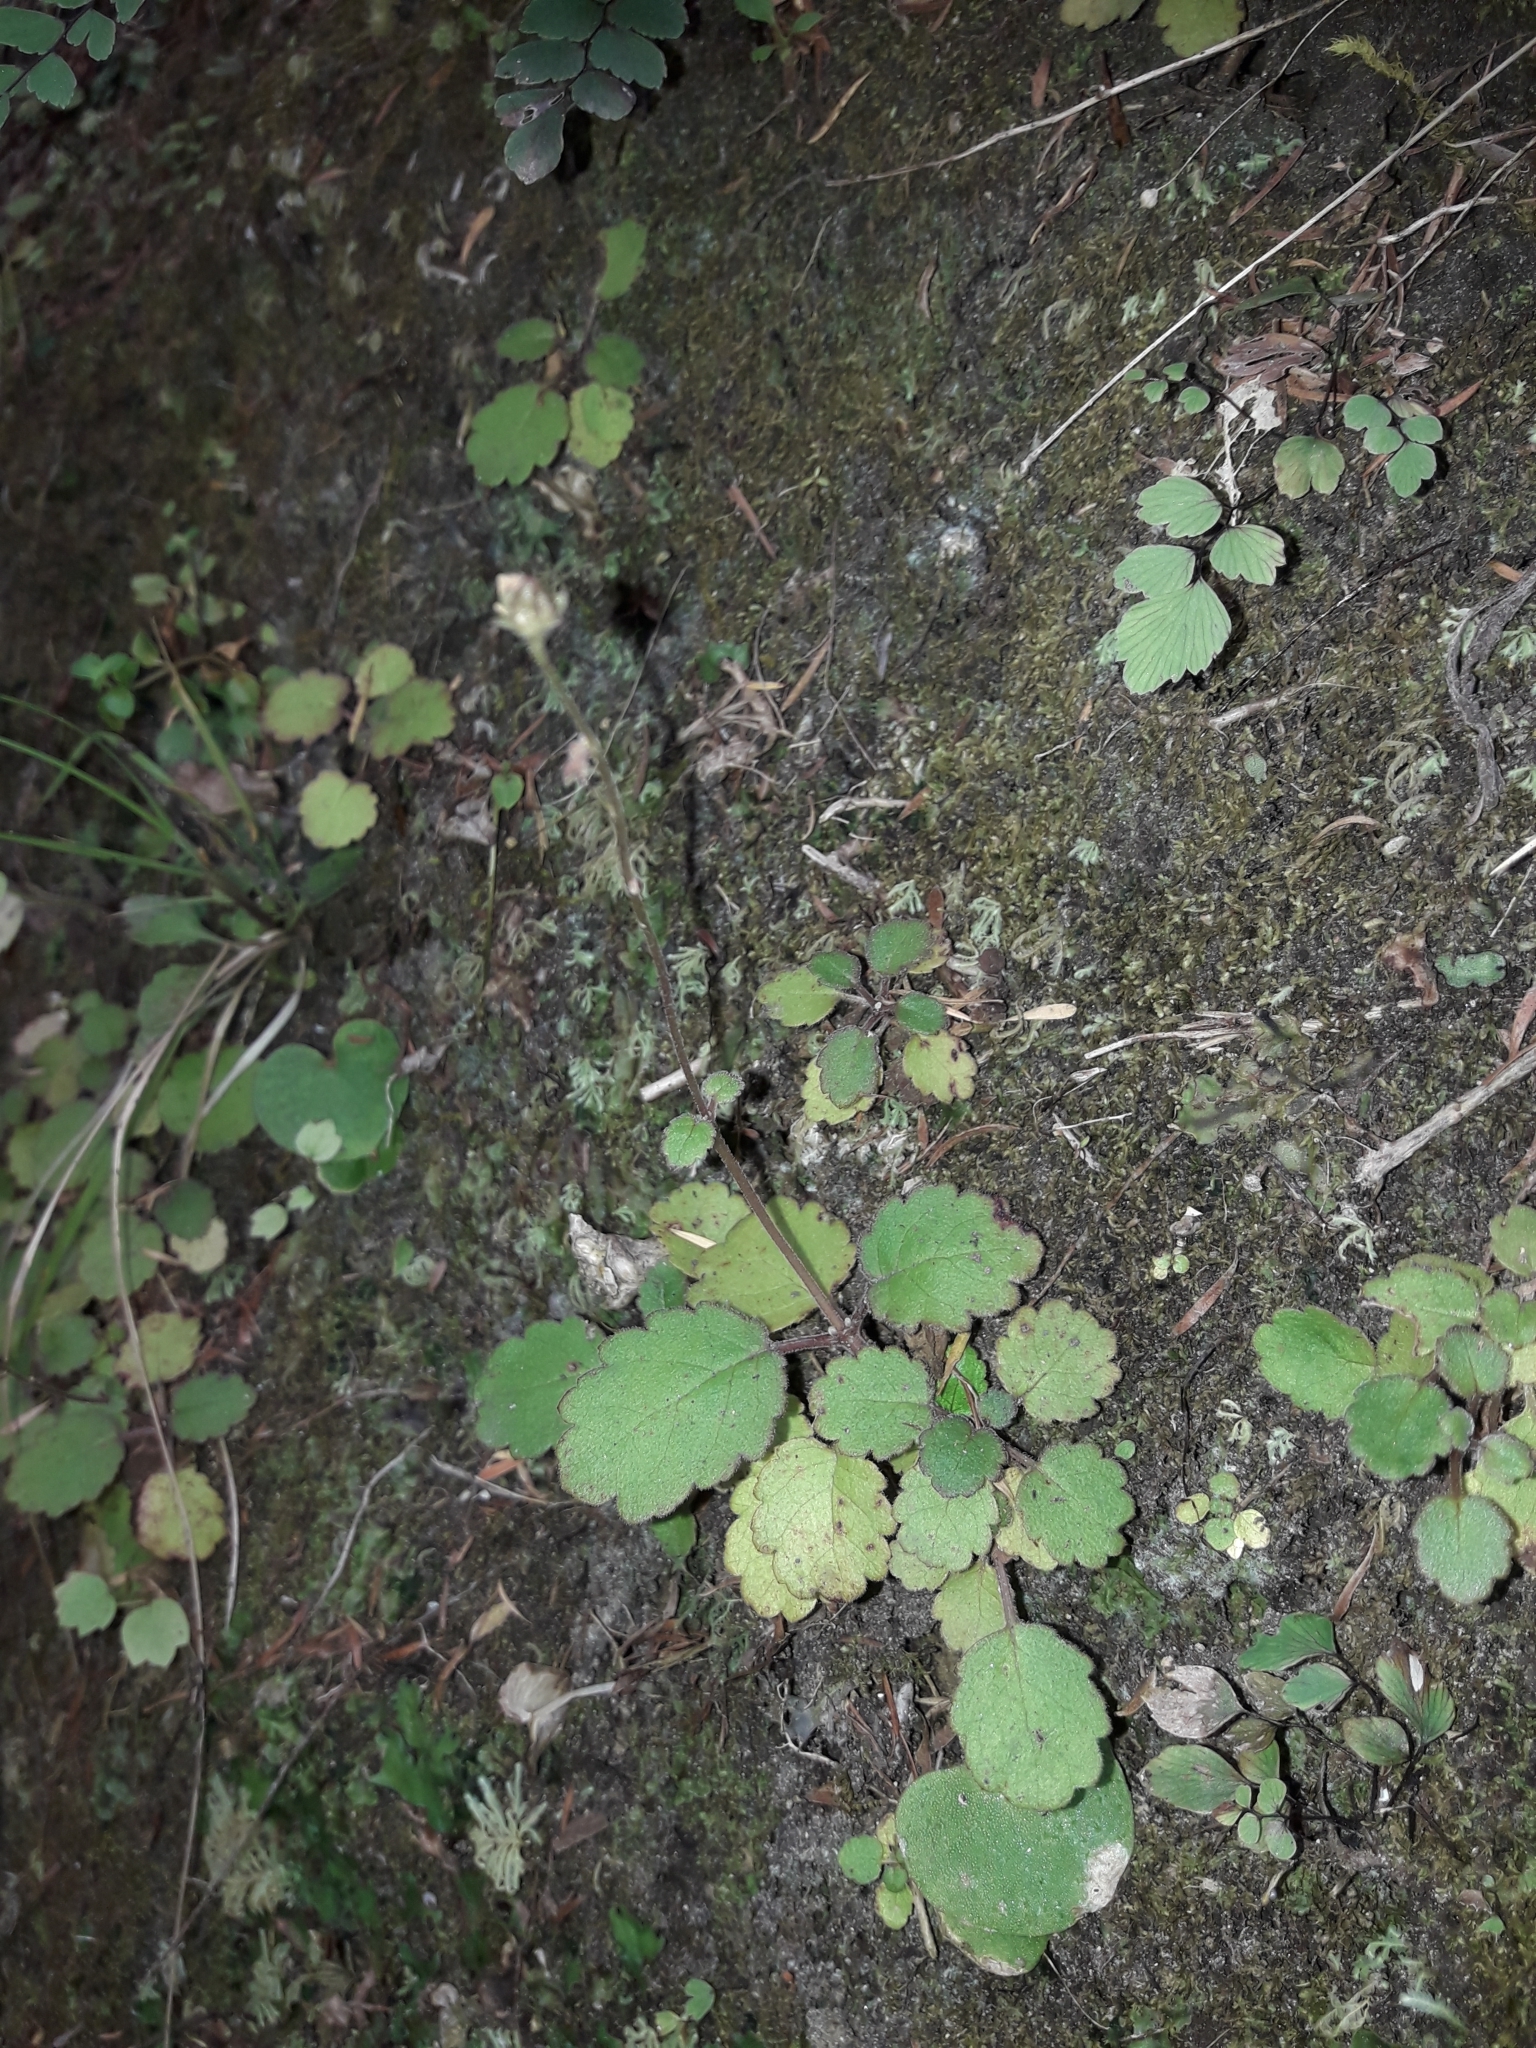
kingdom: Plantae
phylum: Tracheophyta
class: Magnoliopsida
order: Lamiales
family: Calceolariaceae
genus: Jovellana
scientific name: Jovellana repens
